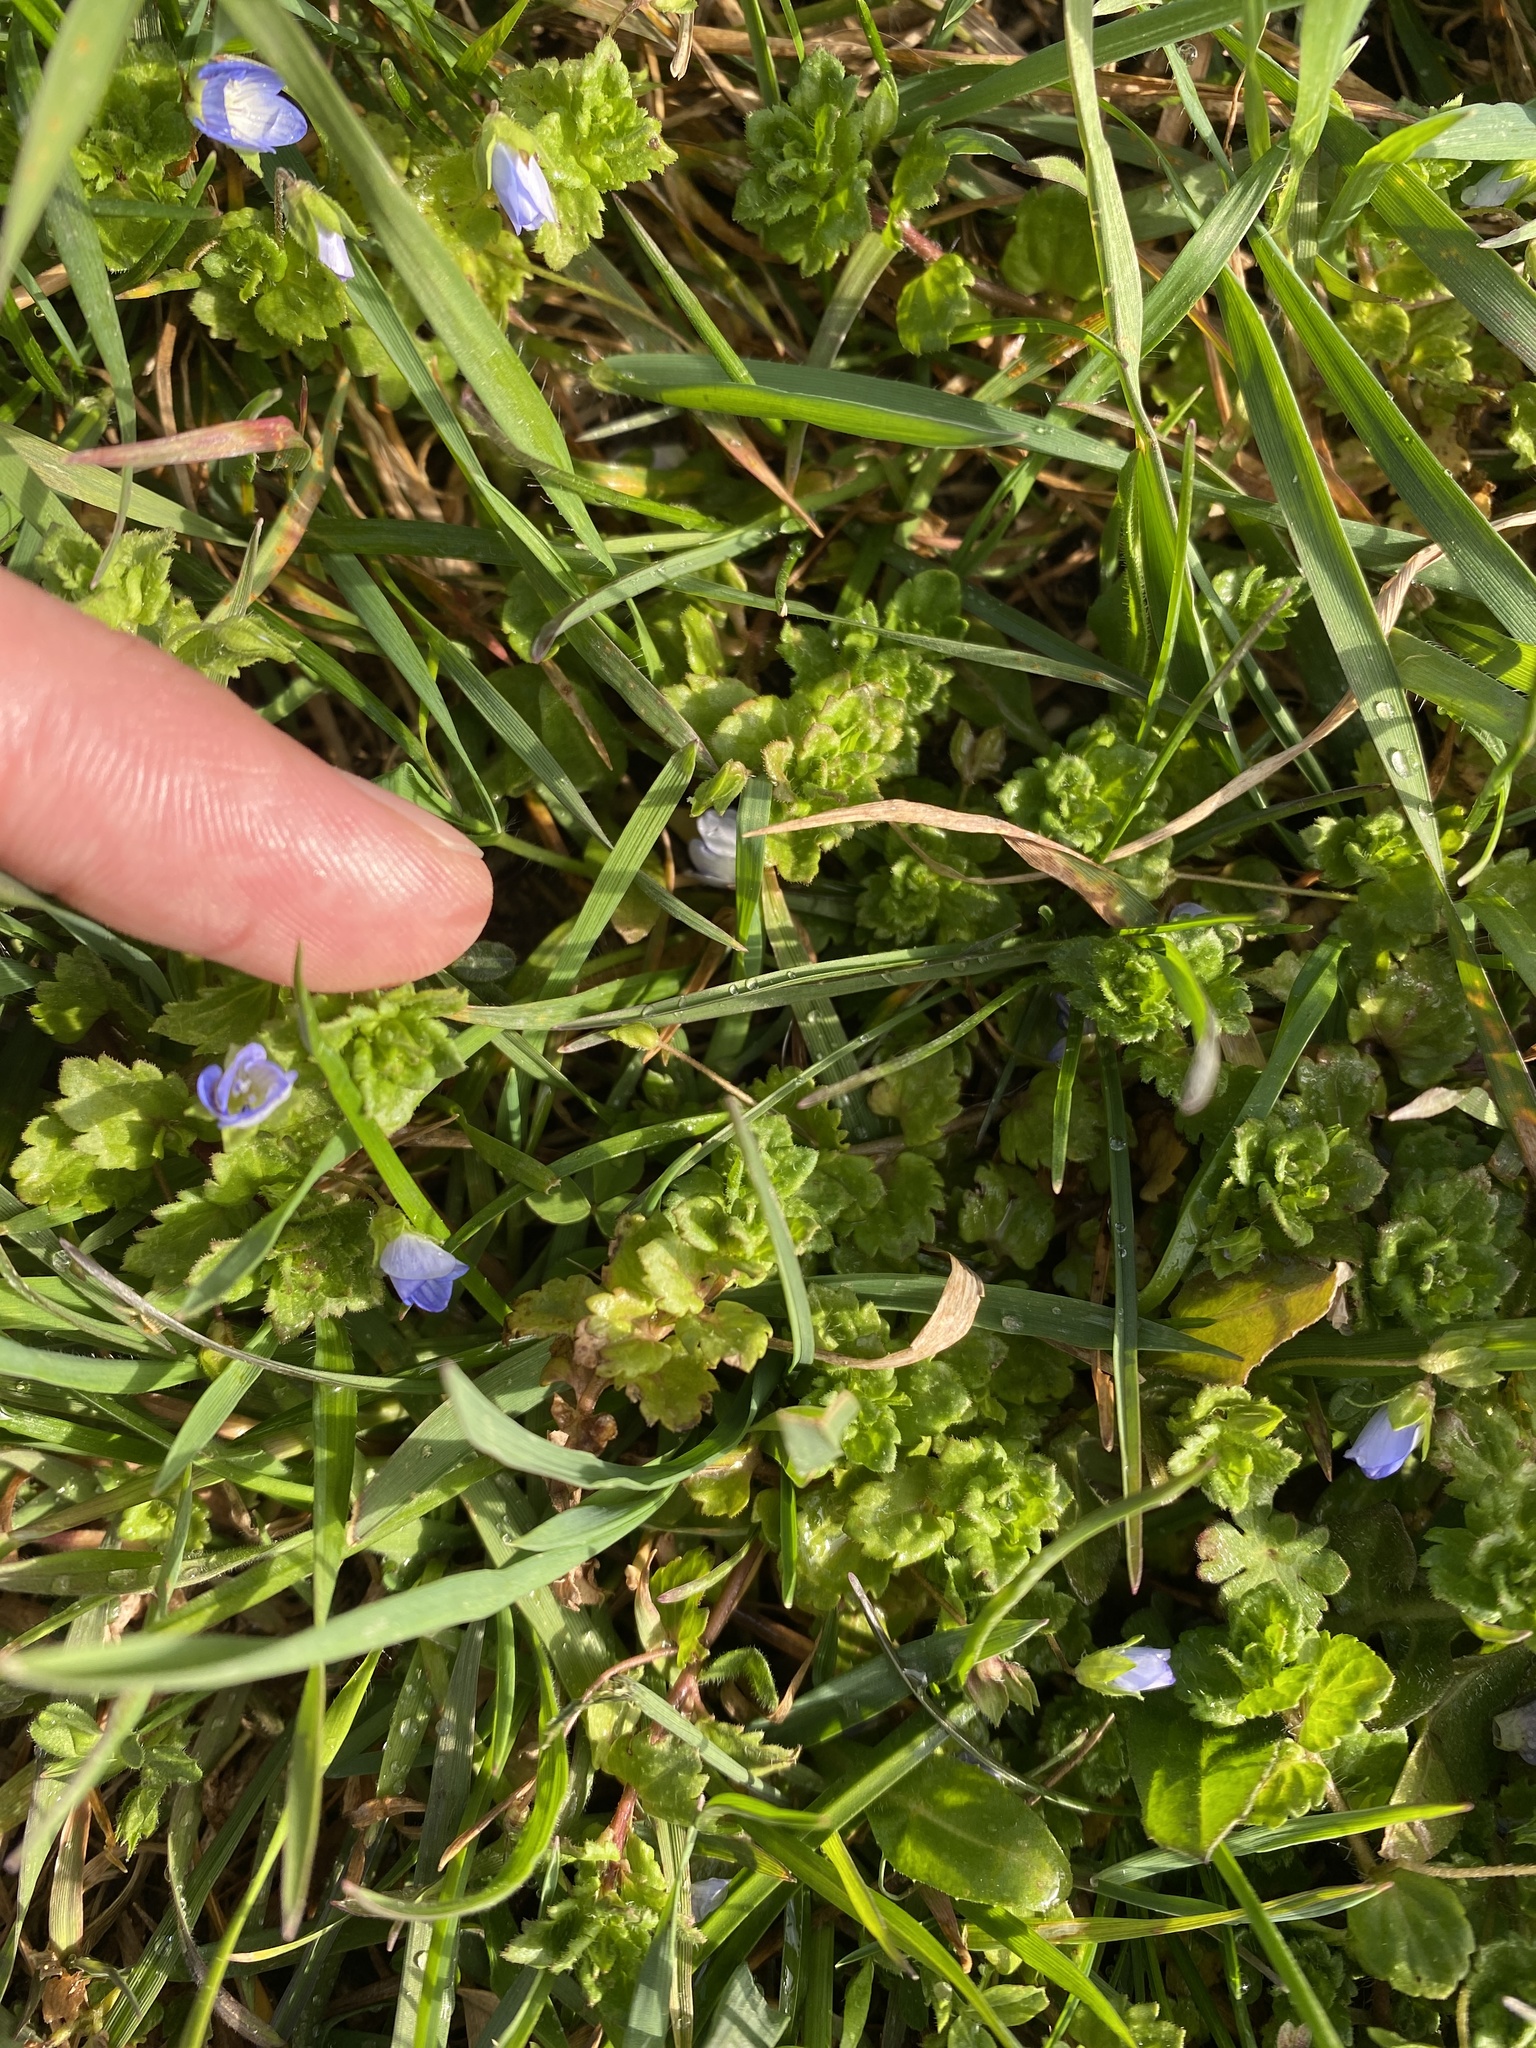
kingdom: Plantae
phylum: Tracheophyta
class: Magnoliopsida
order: Lamiales
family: Plantaginaceae
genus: Veronica
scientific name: Veronica persica
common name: Common field-speedwell
